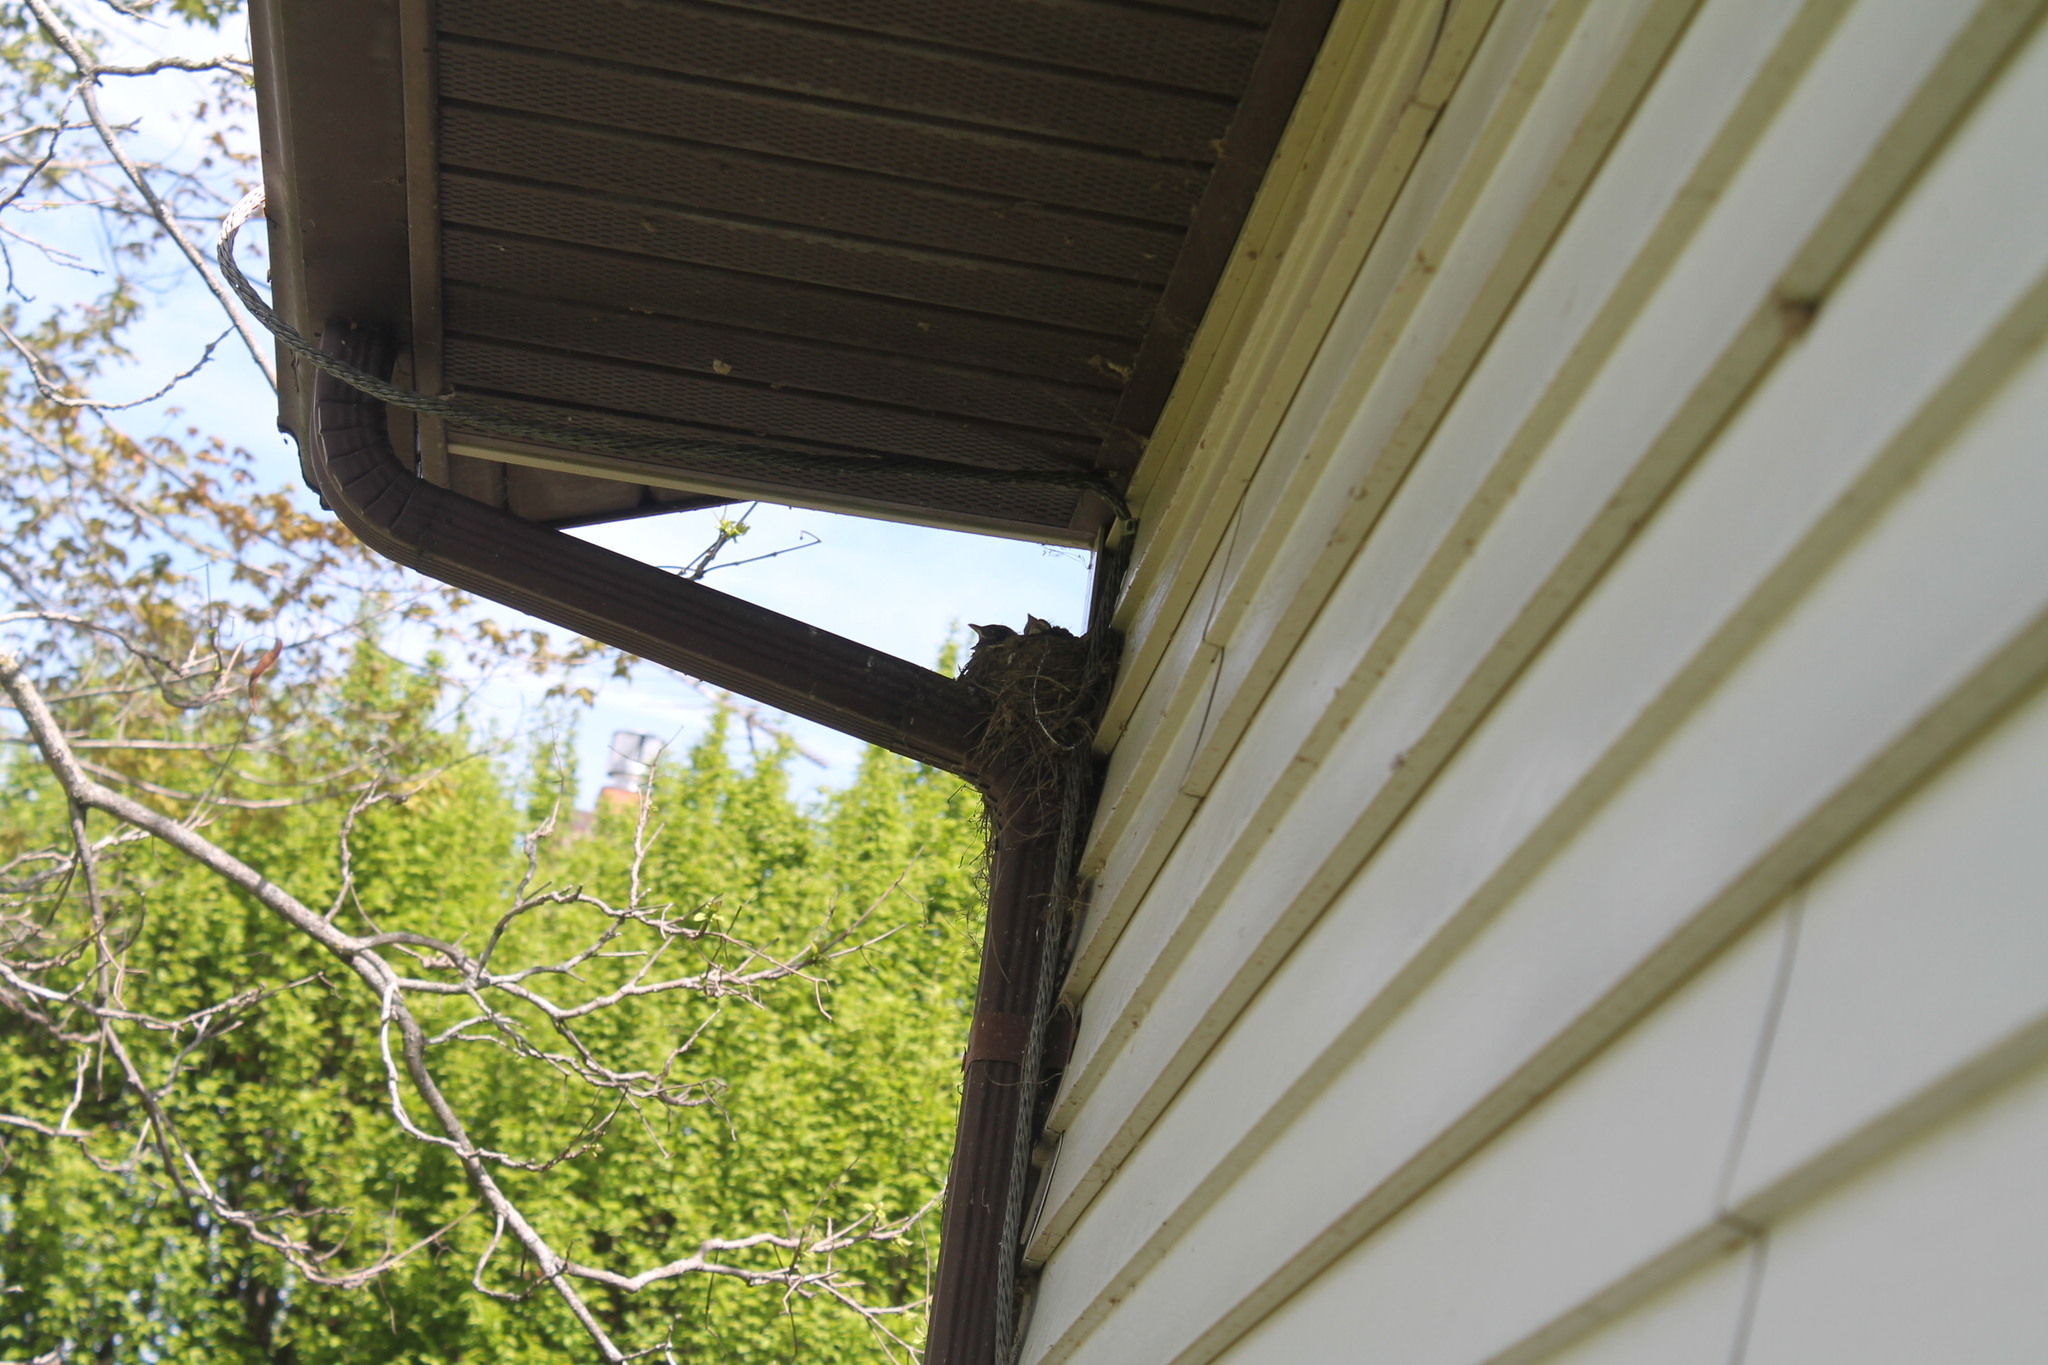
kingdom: Animalia
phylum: Chordata
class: Aves
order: Passeriformes
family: Turdidae
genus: Turdus
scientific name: Turdus migratorius
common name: American robin
